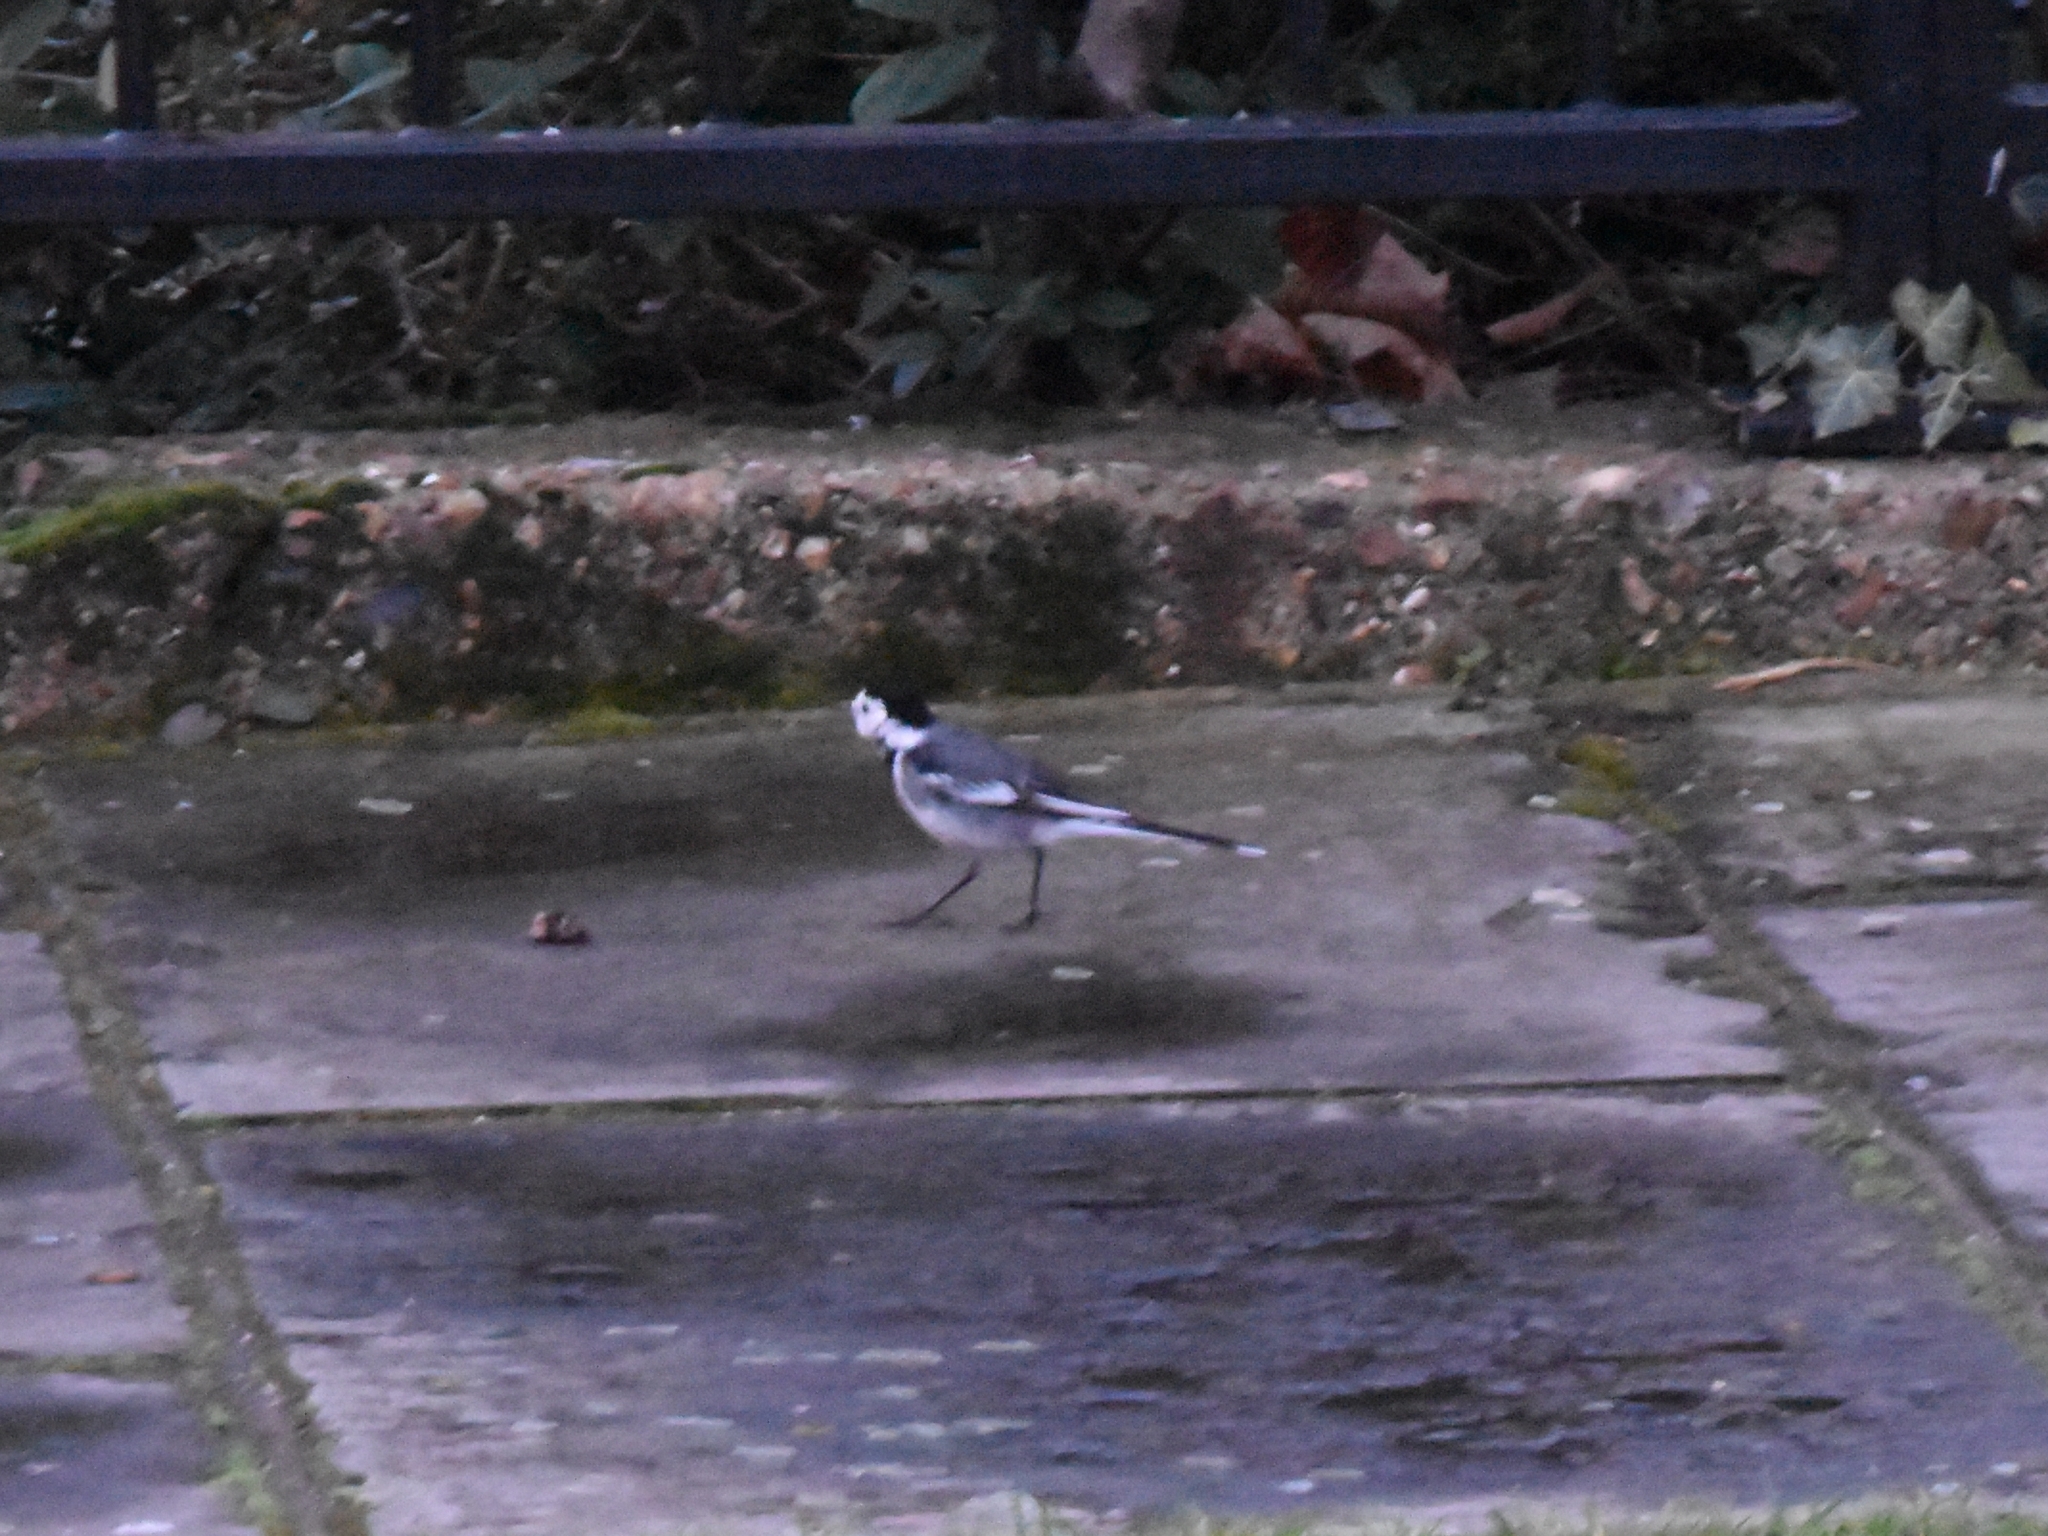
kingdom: Animalia
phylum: Chordata
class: Aves
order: Passeriformes
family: Motacillidae
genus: Motacilla
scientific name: Motacilla alba
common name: White wagtail
